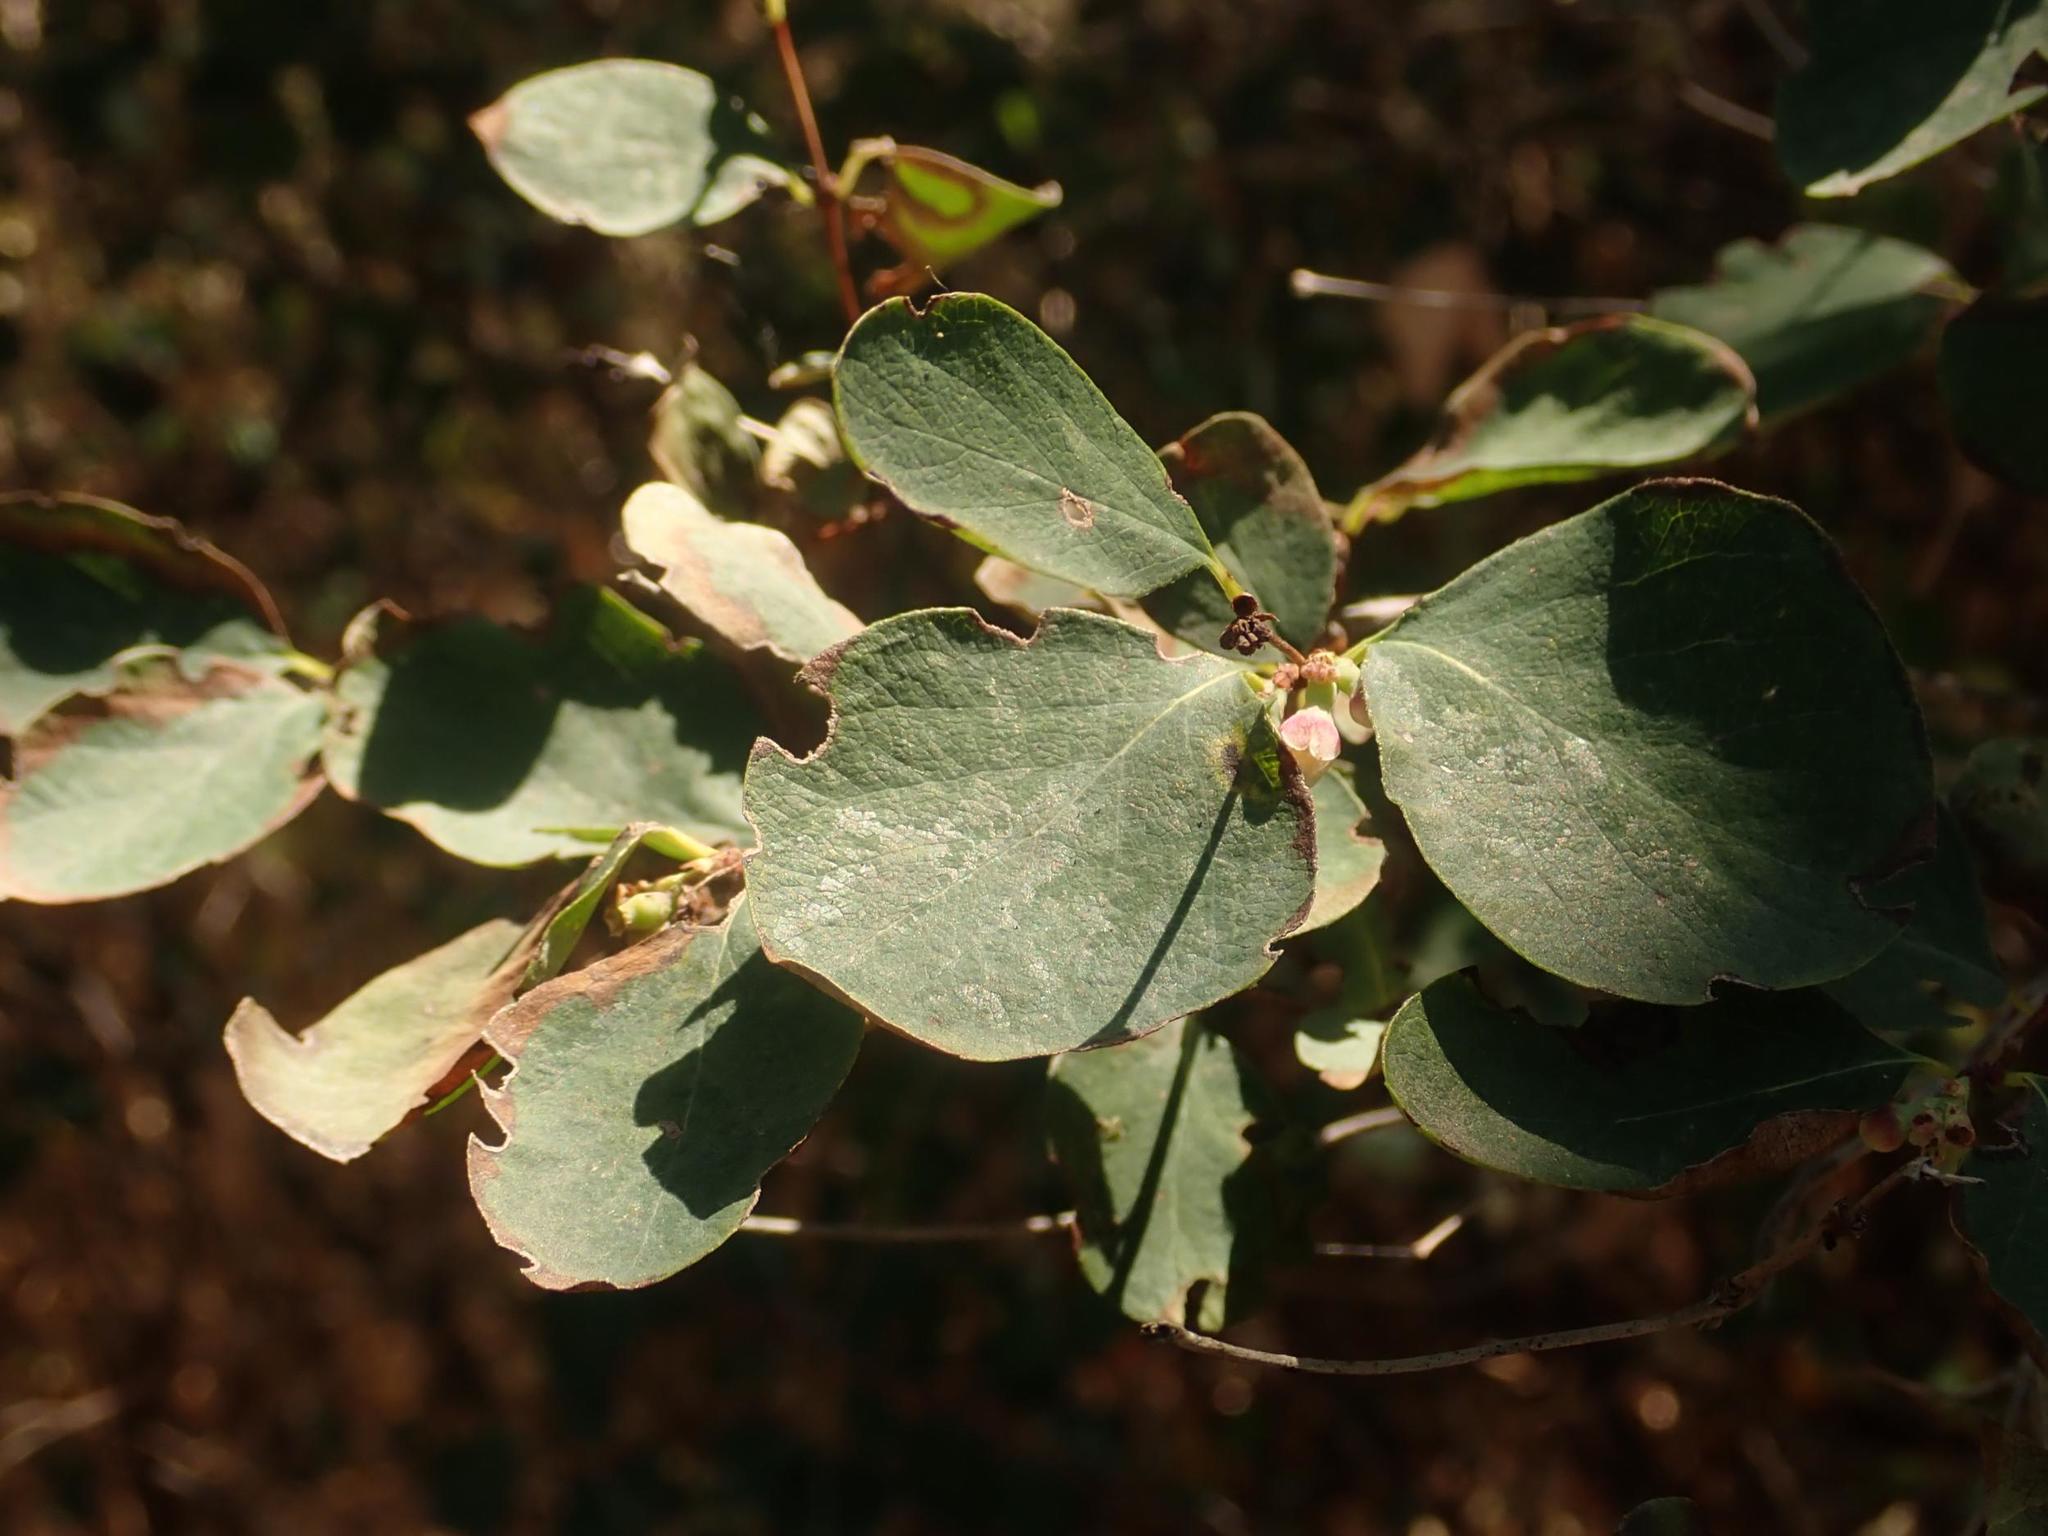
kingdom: Plantae
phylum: Tracheophyta
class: Magnoliopsida
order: Dipsacales
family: Caprifoliaceae
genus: Symphoricarpos
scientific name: Symphoricarpos albus
